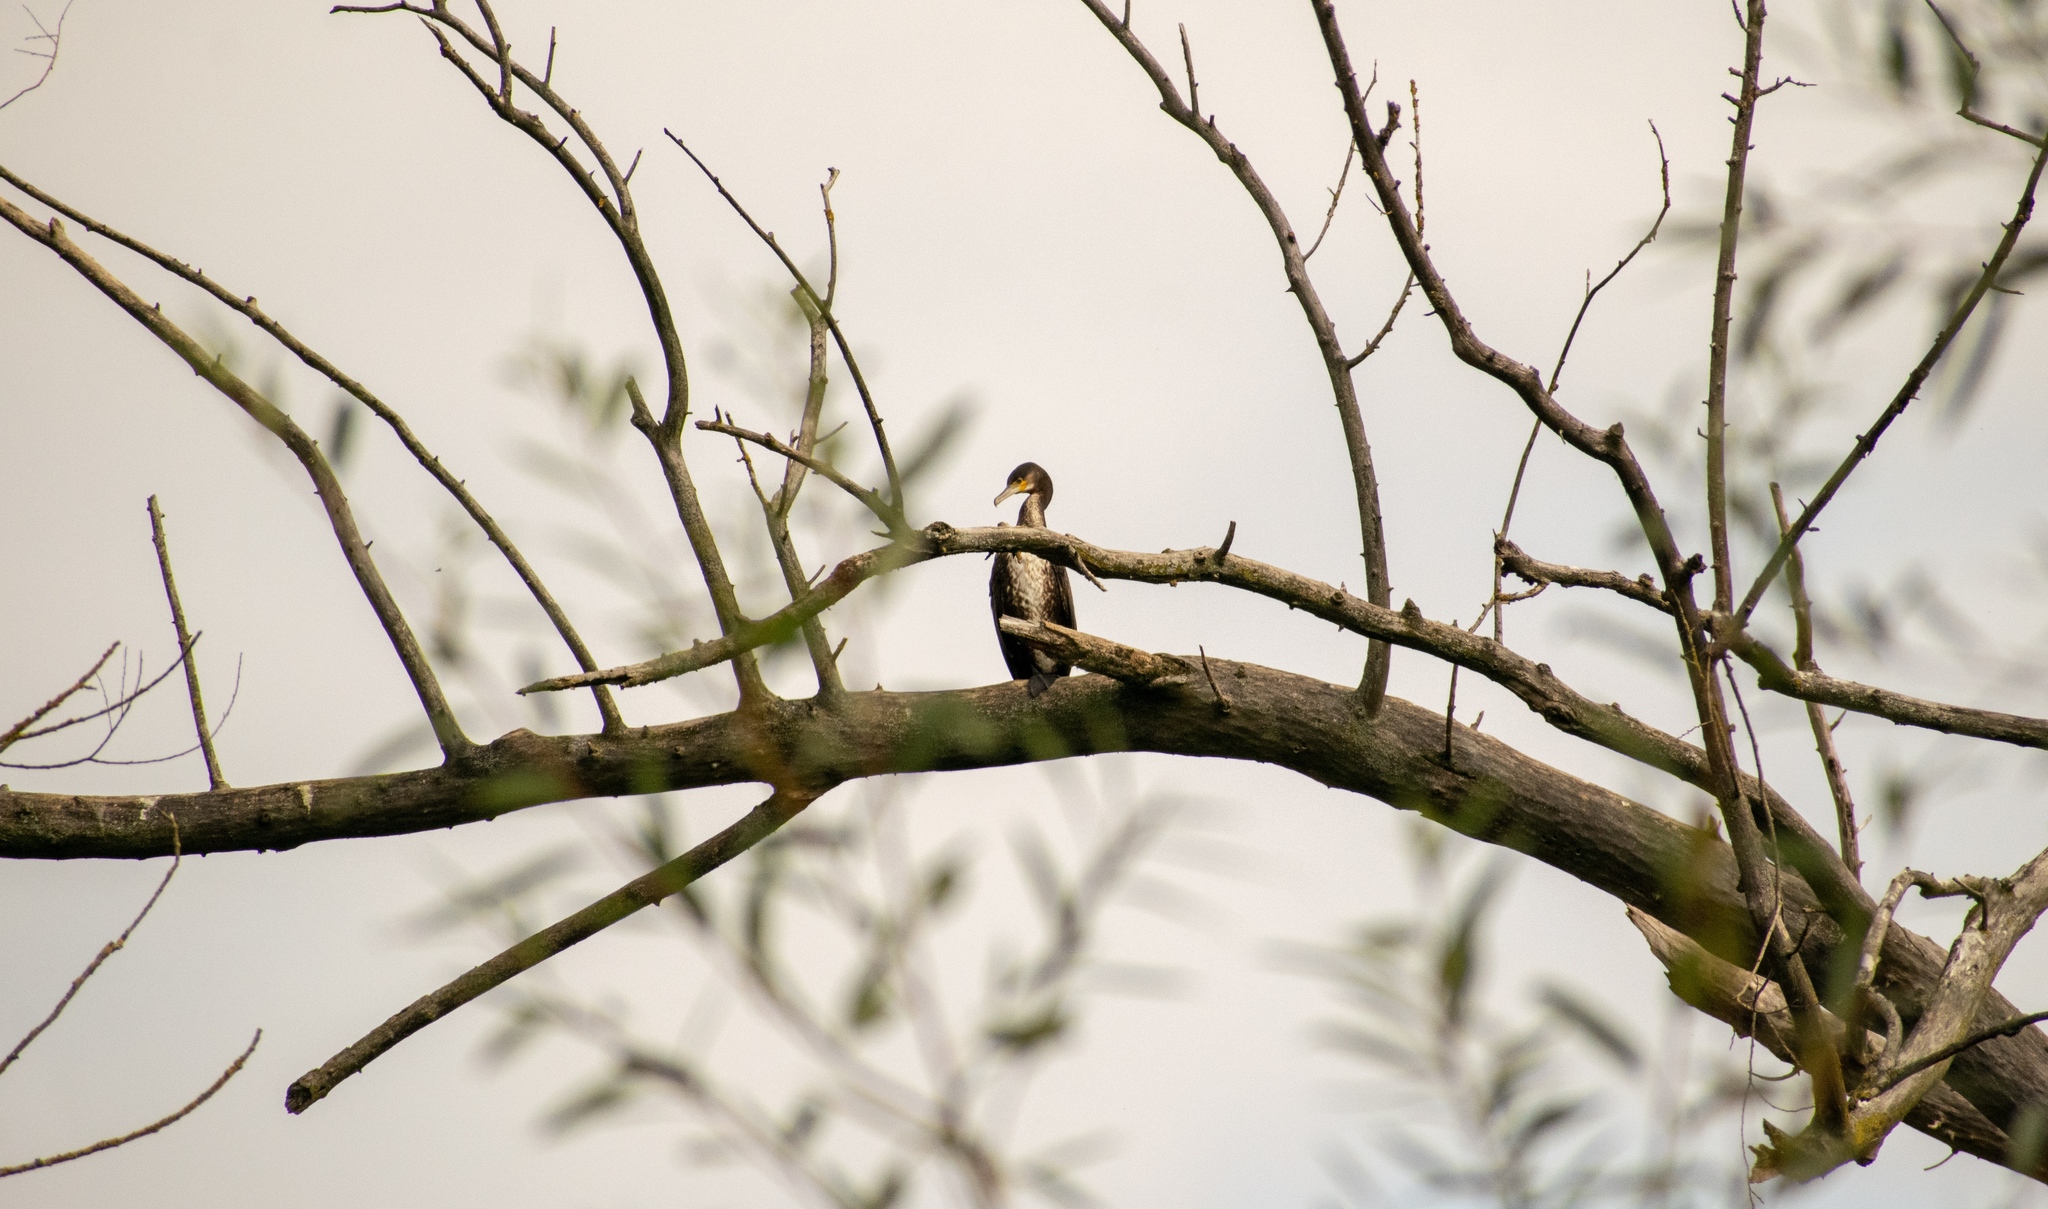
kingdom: Animalia
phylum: Chordata
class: Aves
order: Suliformes
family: Phalacrocoracidae
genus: Phalacrocorax
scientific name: Phalacrocorax carbo
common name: Great cormorant
